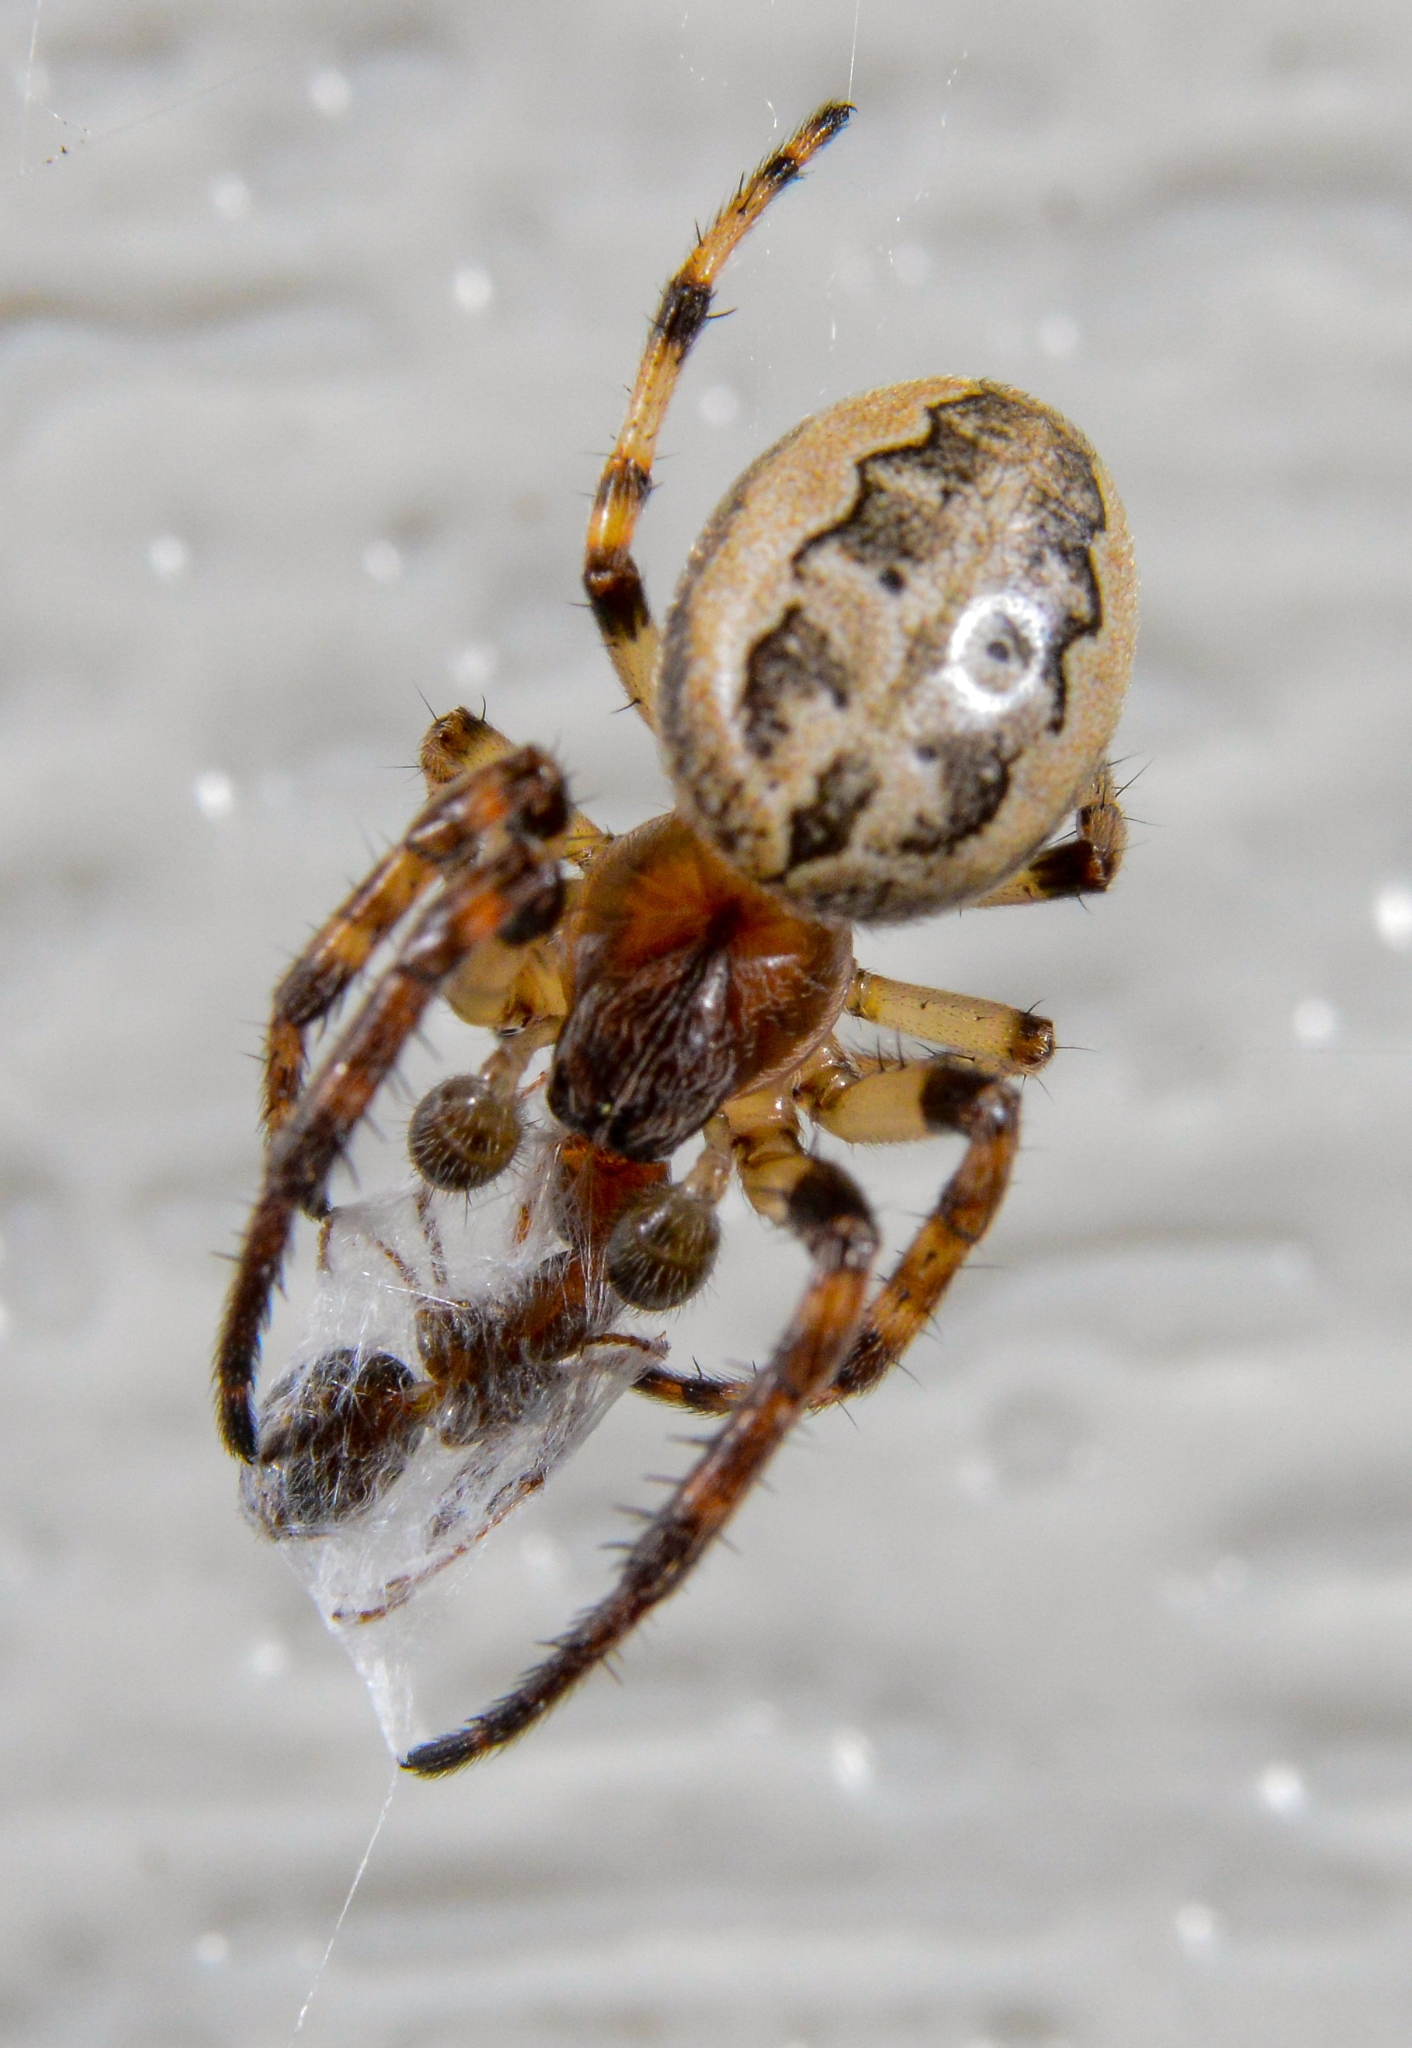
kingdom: Animalia
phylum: Arthropoda
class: Arachnida
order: Araneae
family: Araneidae
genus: Larinioides
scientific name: Larinioides cornutus
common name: Furrow orbweaver
